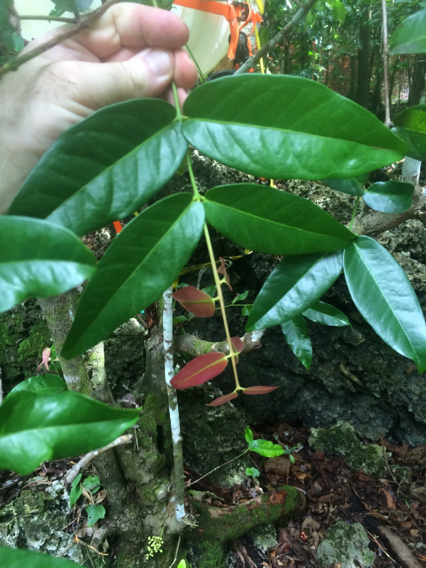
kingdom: Plantae
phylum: Tracheophyta
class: Magnoliopsida
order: Myrtales
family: Myrtaceae
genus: Syzygium
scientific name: Syzygium thompsonii
